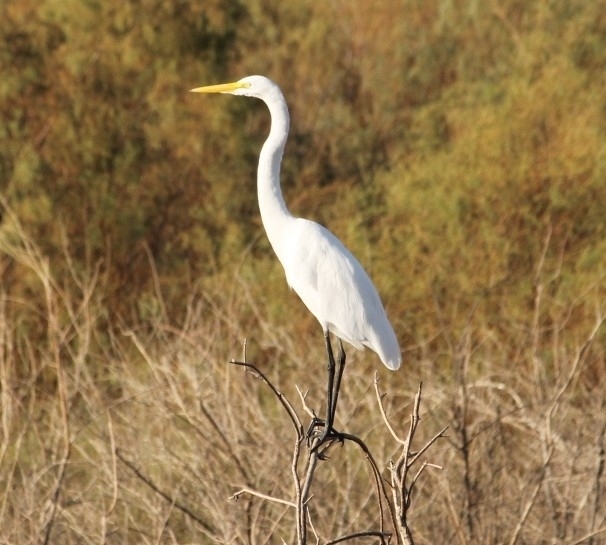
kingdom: Animalia
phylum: Chordata
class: Aves
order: Pelecaniformes
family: Ardeidae
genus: Ardea
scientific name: Ardea alba
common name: Great egret
